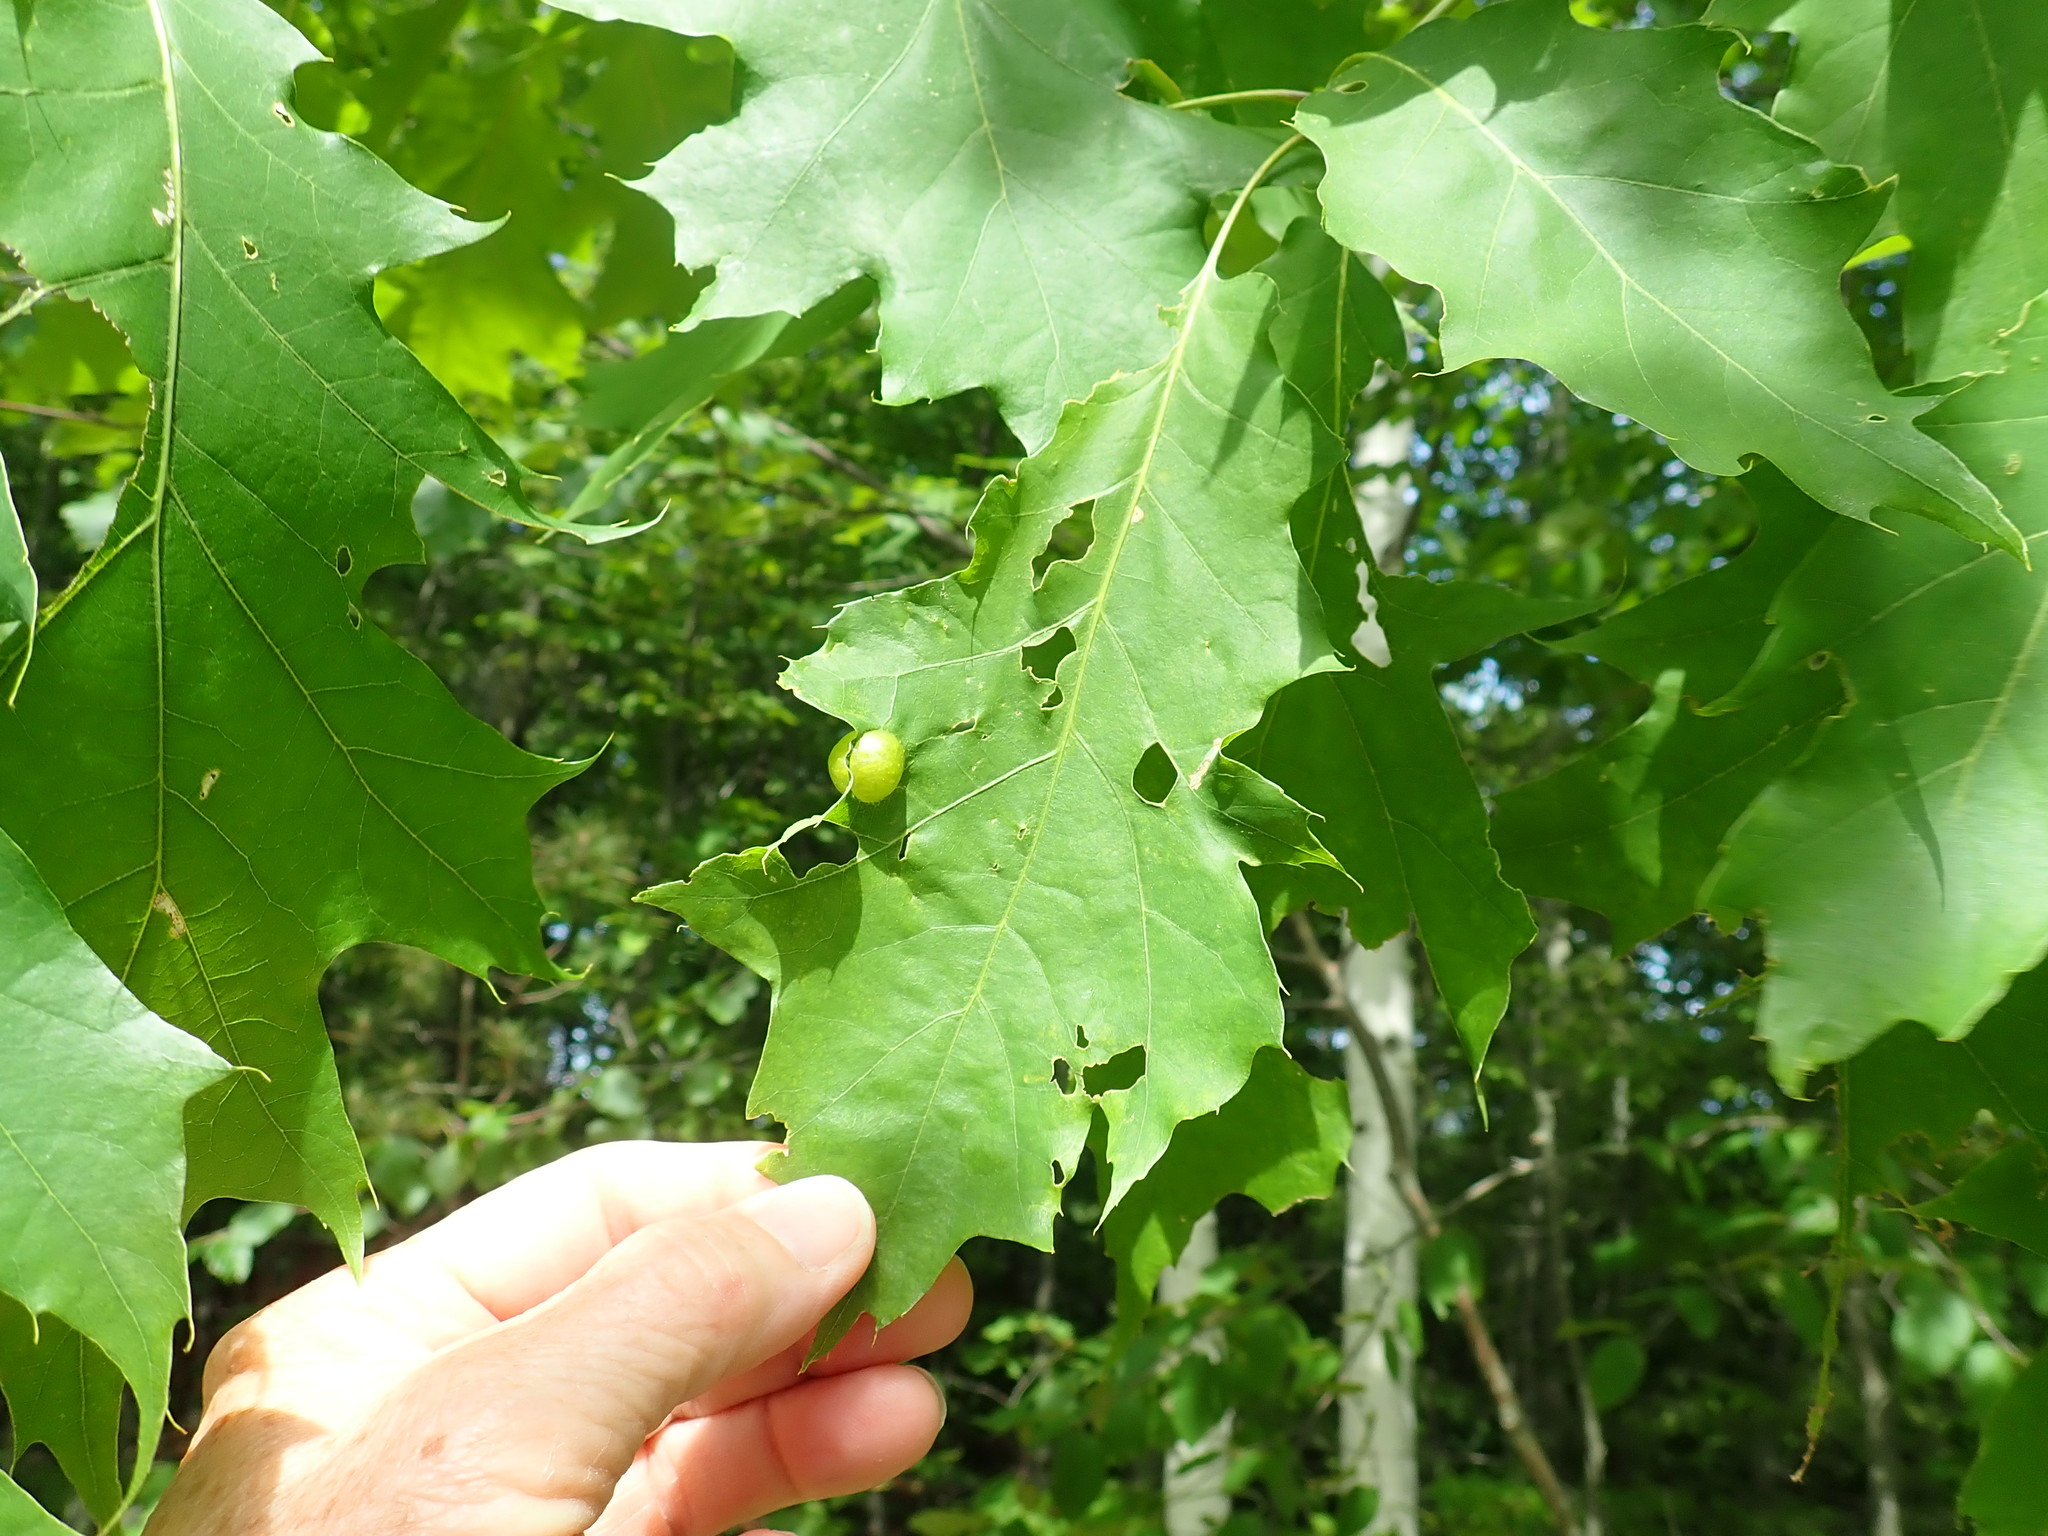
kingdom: Animalia
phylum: Arthropoda
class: Insecta
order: Hymenoptera
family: Cynipidae
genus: Amphibolips
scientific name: Amphibolips
